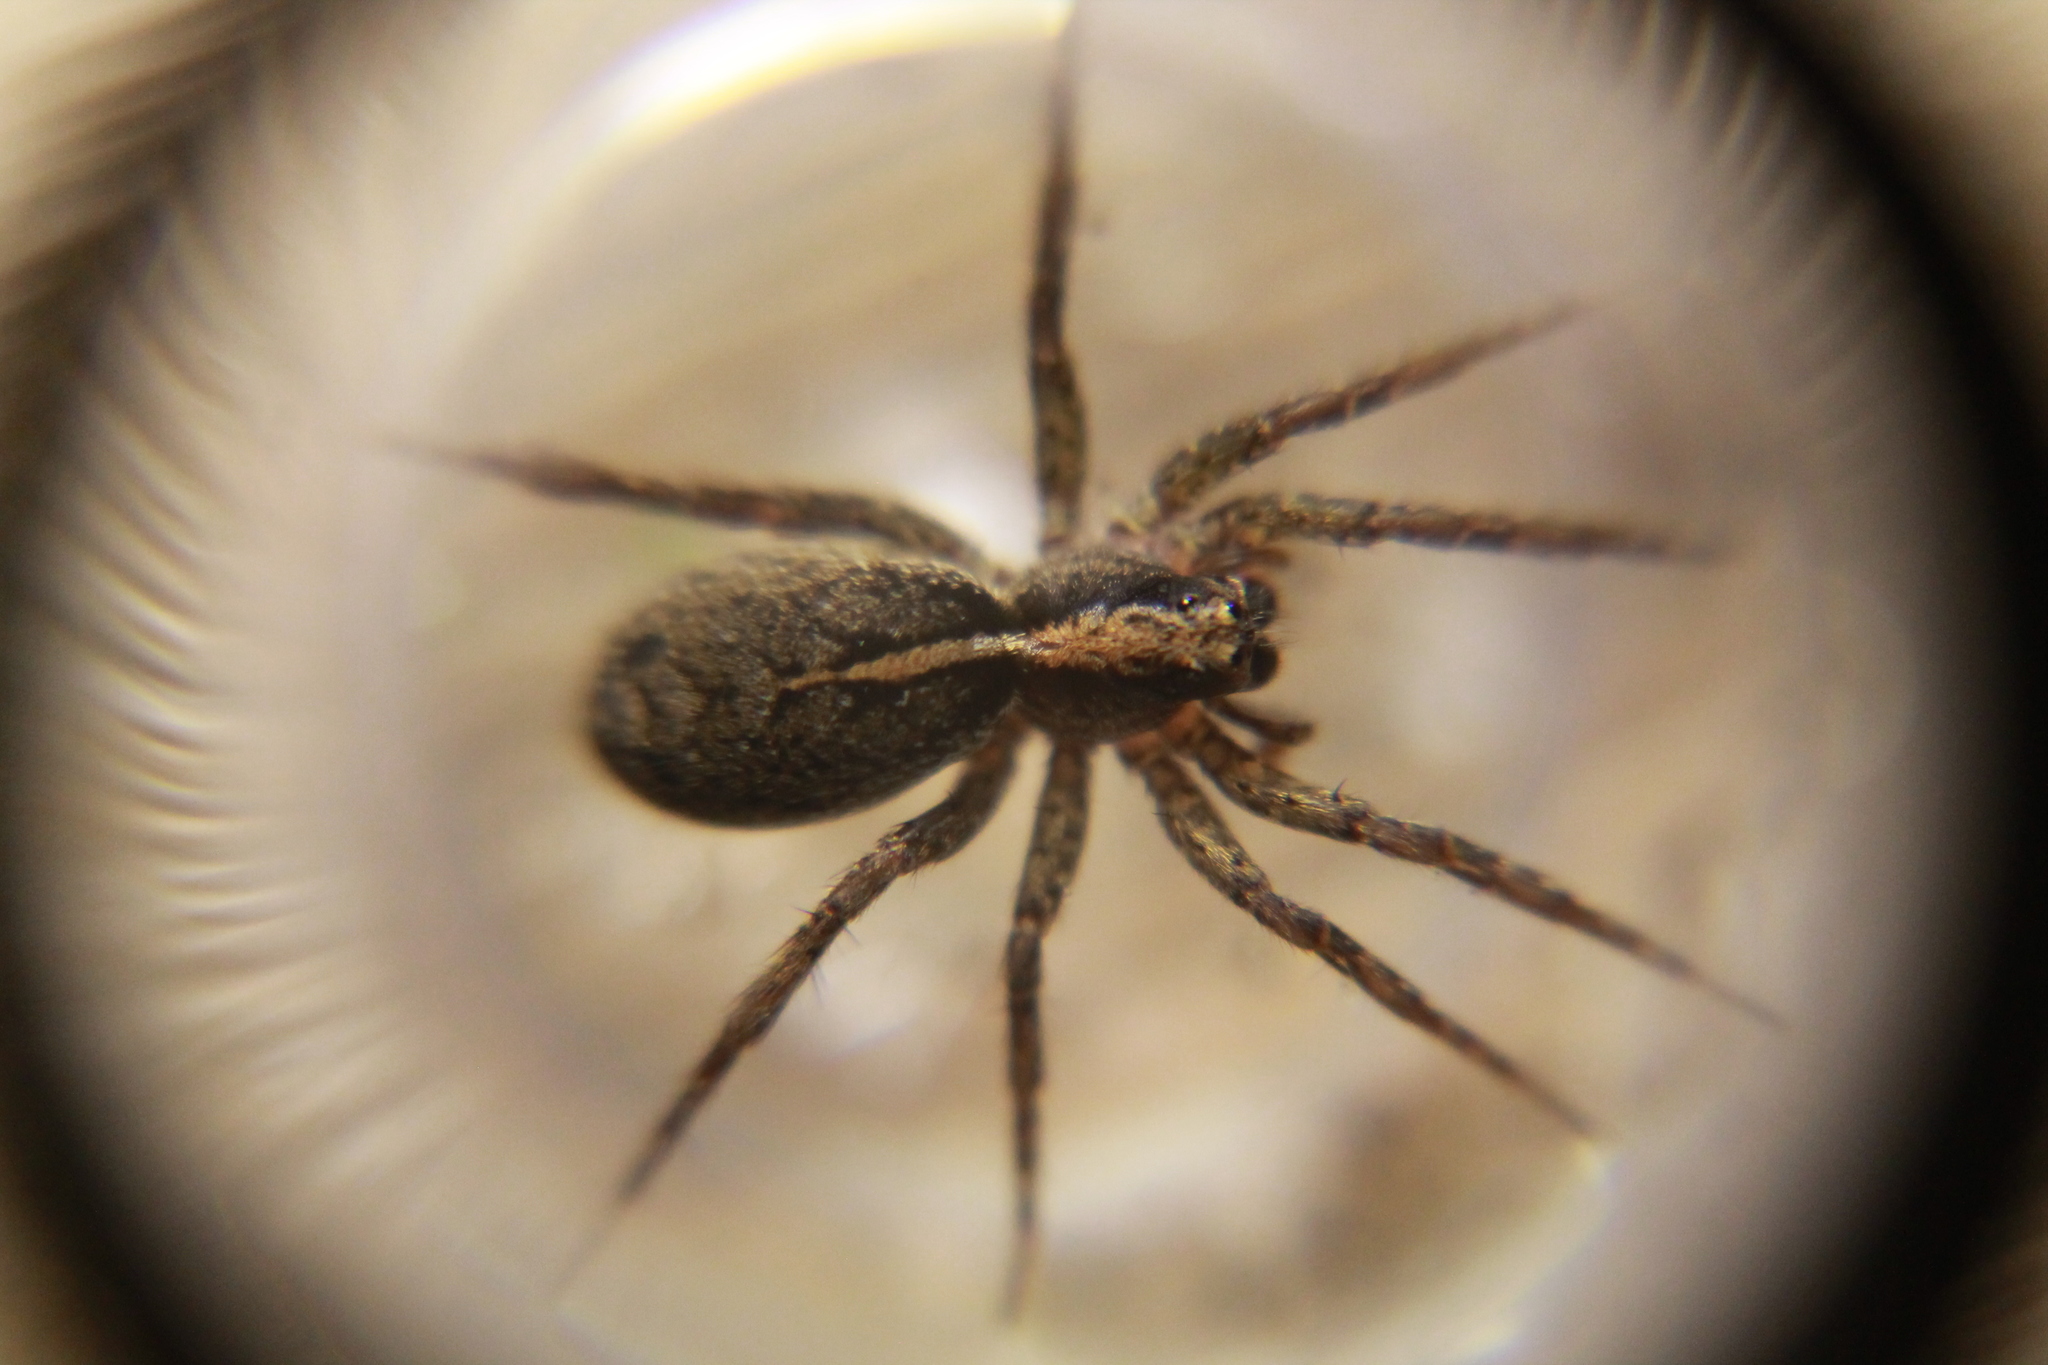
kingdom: Animalia
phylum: Arthropoda
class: Arachnida
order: Araneae
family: Lycosidae
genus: Anoteropsis
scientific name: Anoteropsis hilaris
